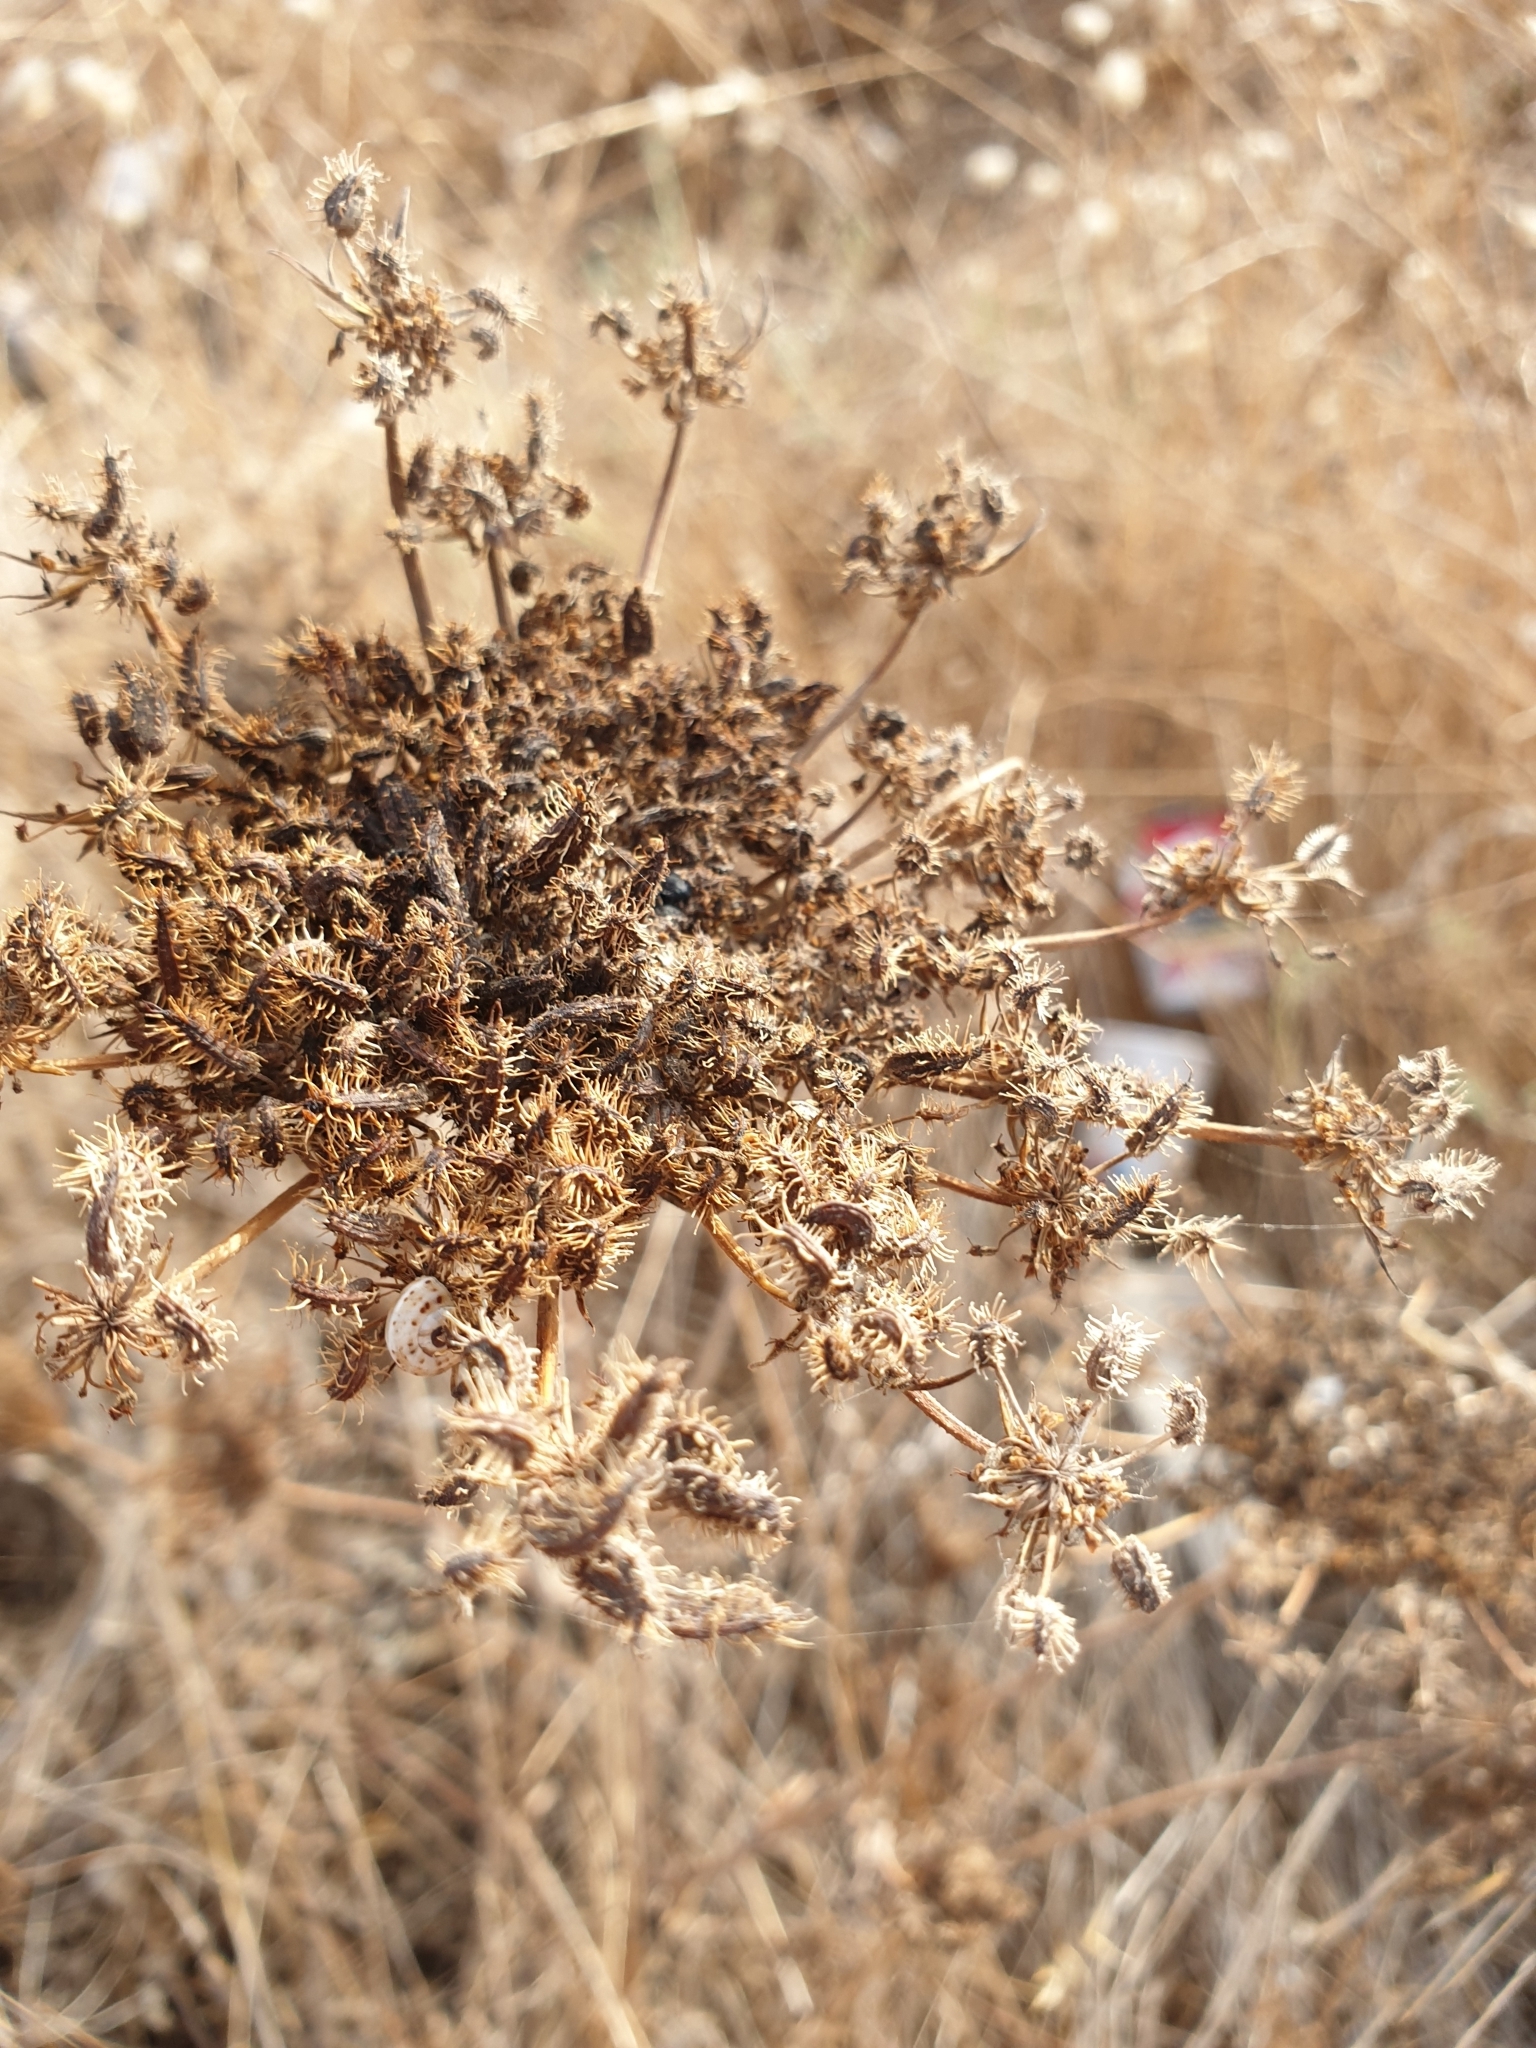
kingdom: Plantae
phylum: Tracheophyta
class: Magnoliopsida
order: Apiales
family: Apiaceae
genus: Daucus
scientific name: Daucus carota
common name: Wild carrot
